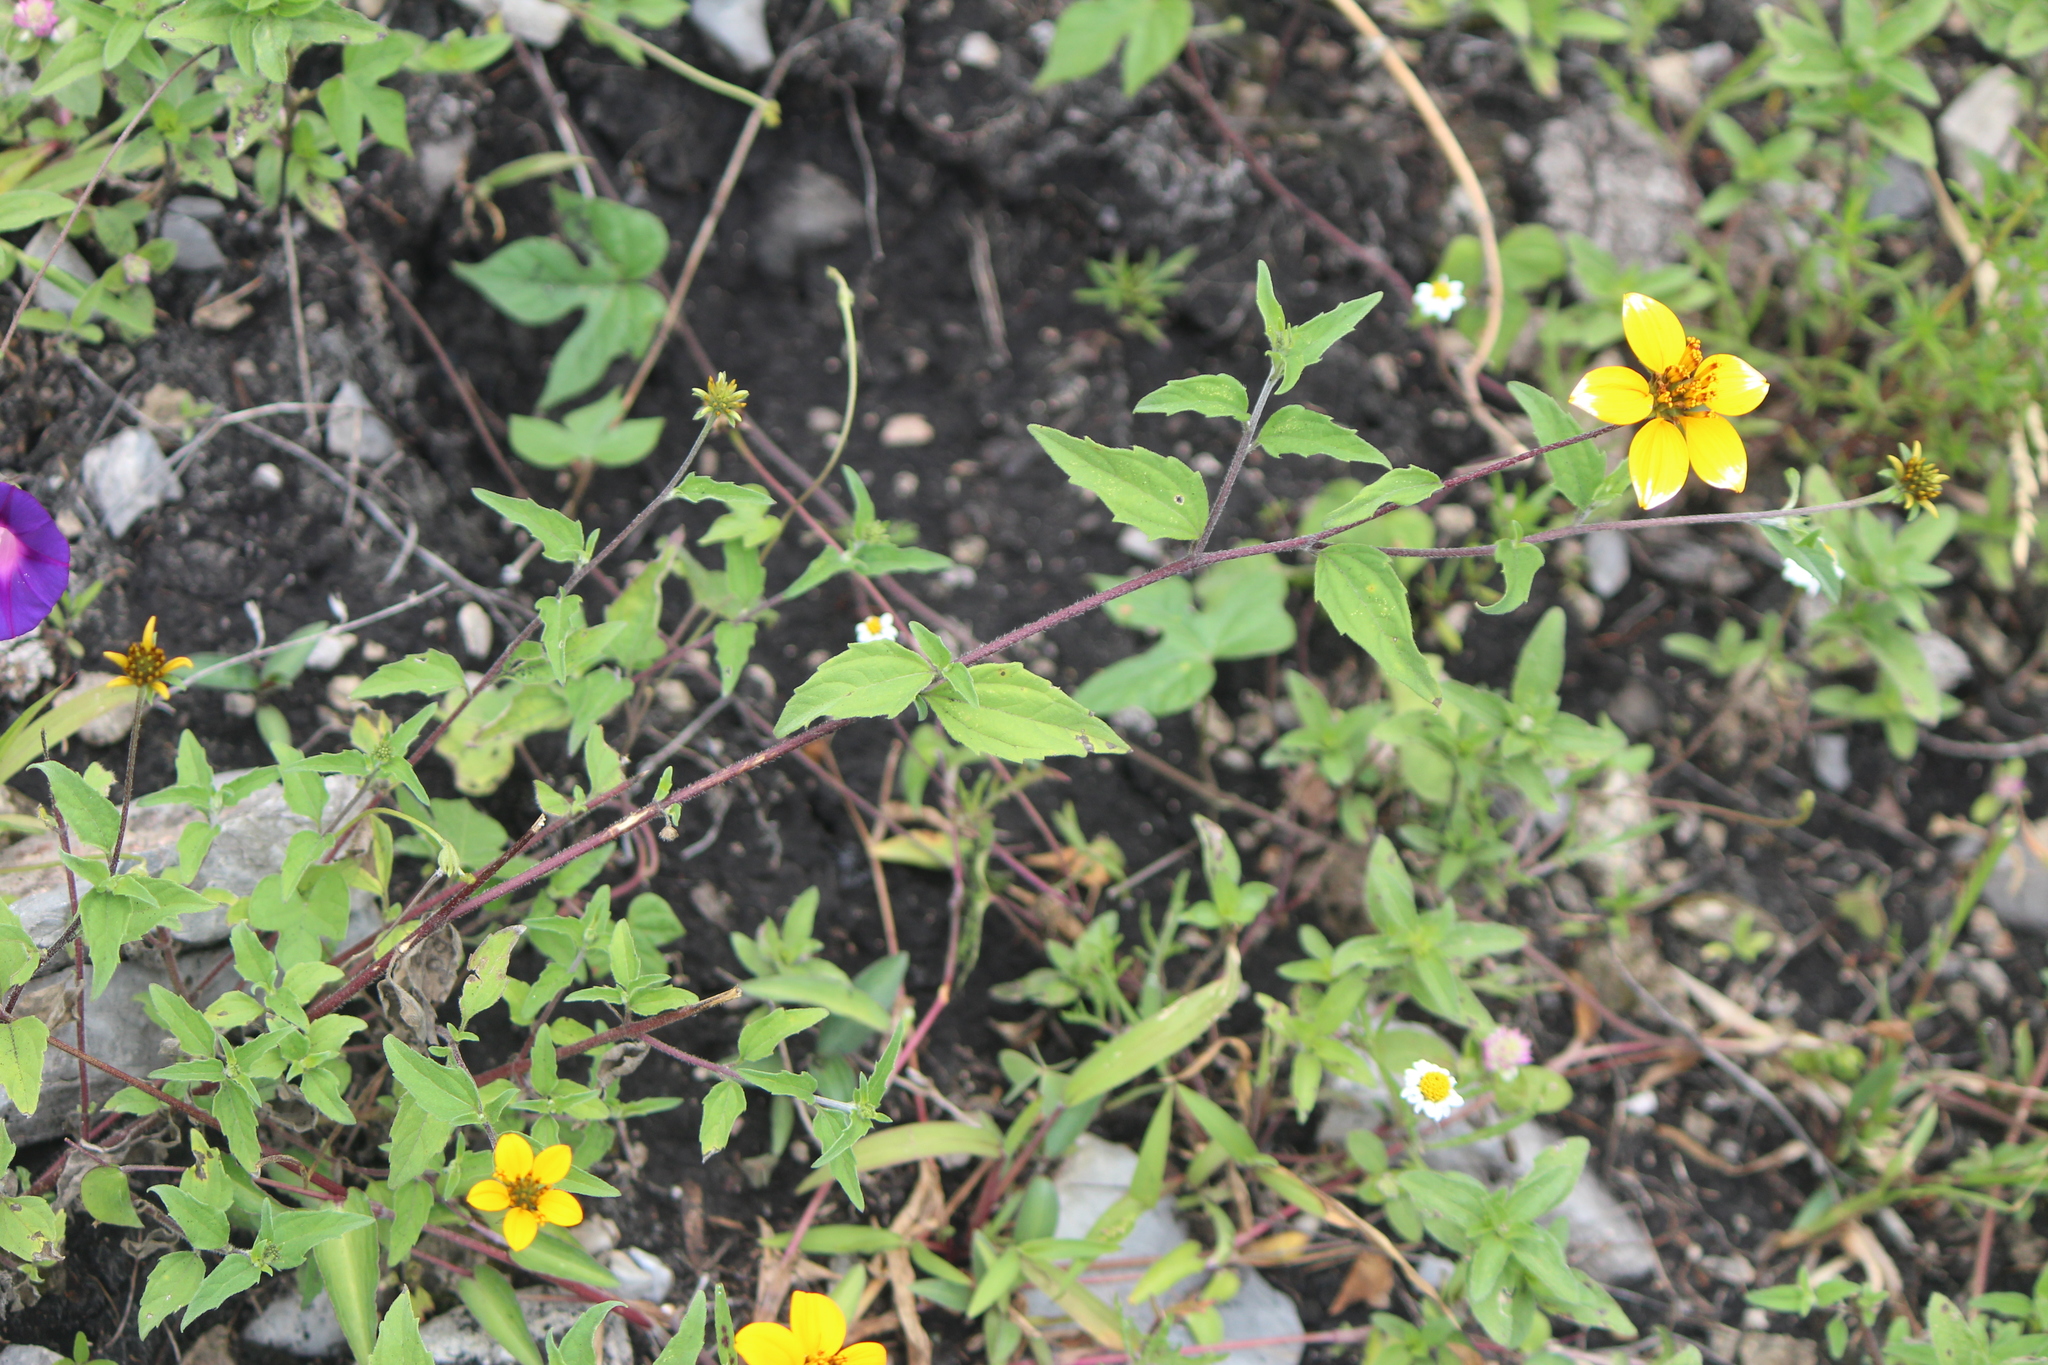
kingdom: Plantae
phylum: Tracheophyta
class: Magnoliopsida
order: Asterales
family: Asteraceae
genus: Sclerocarpus
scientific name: Sclerocarpus uniserialis
